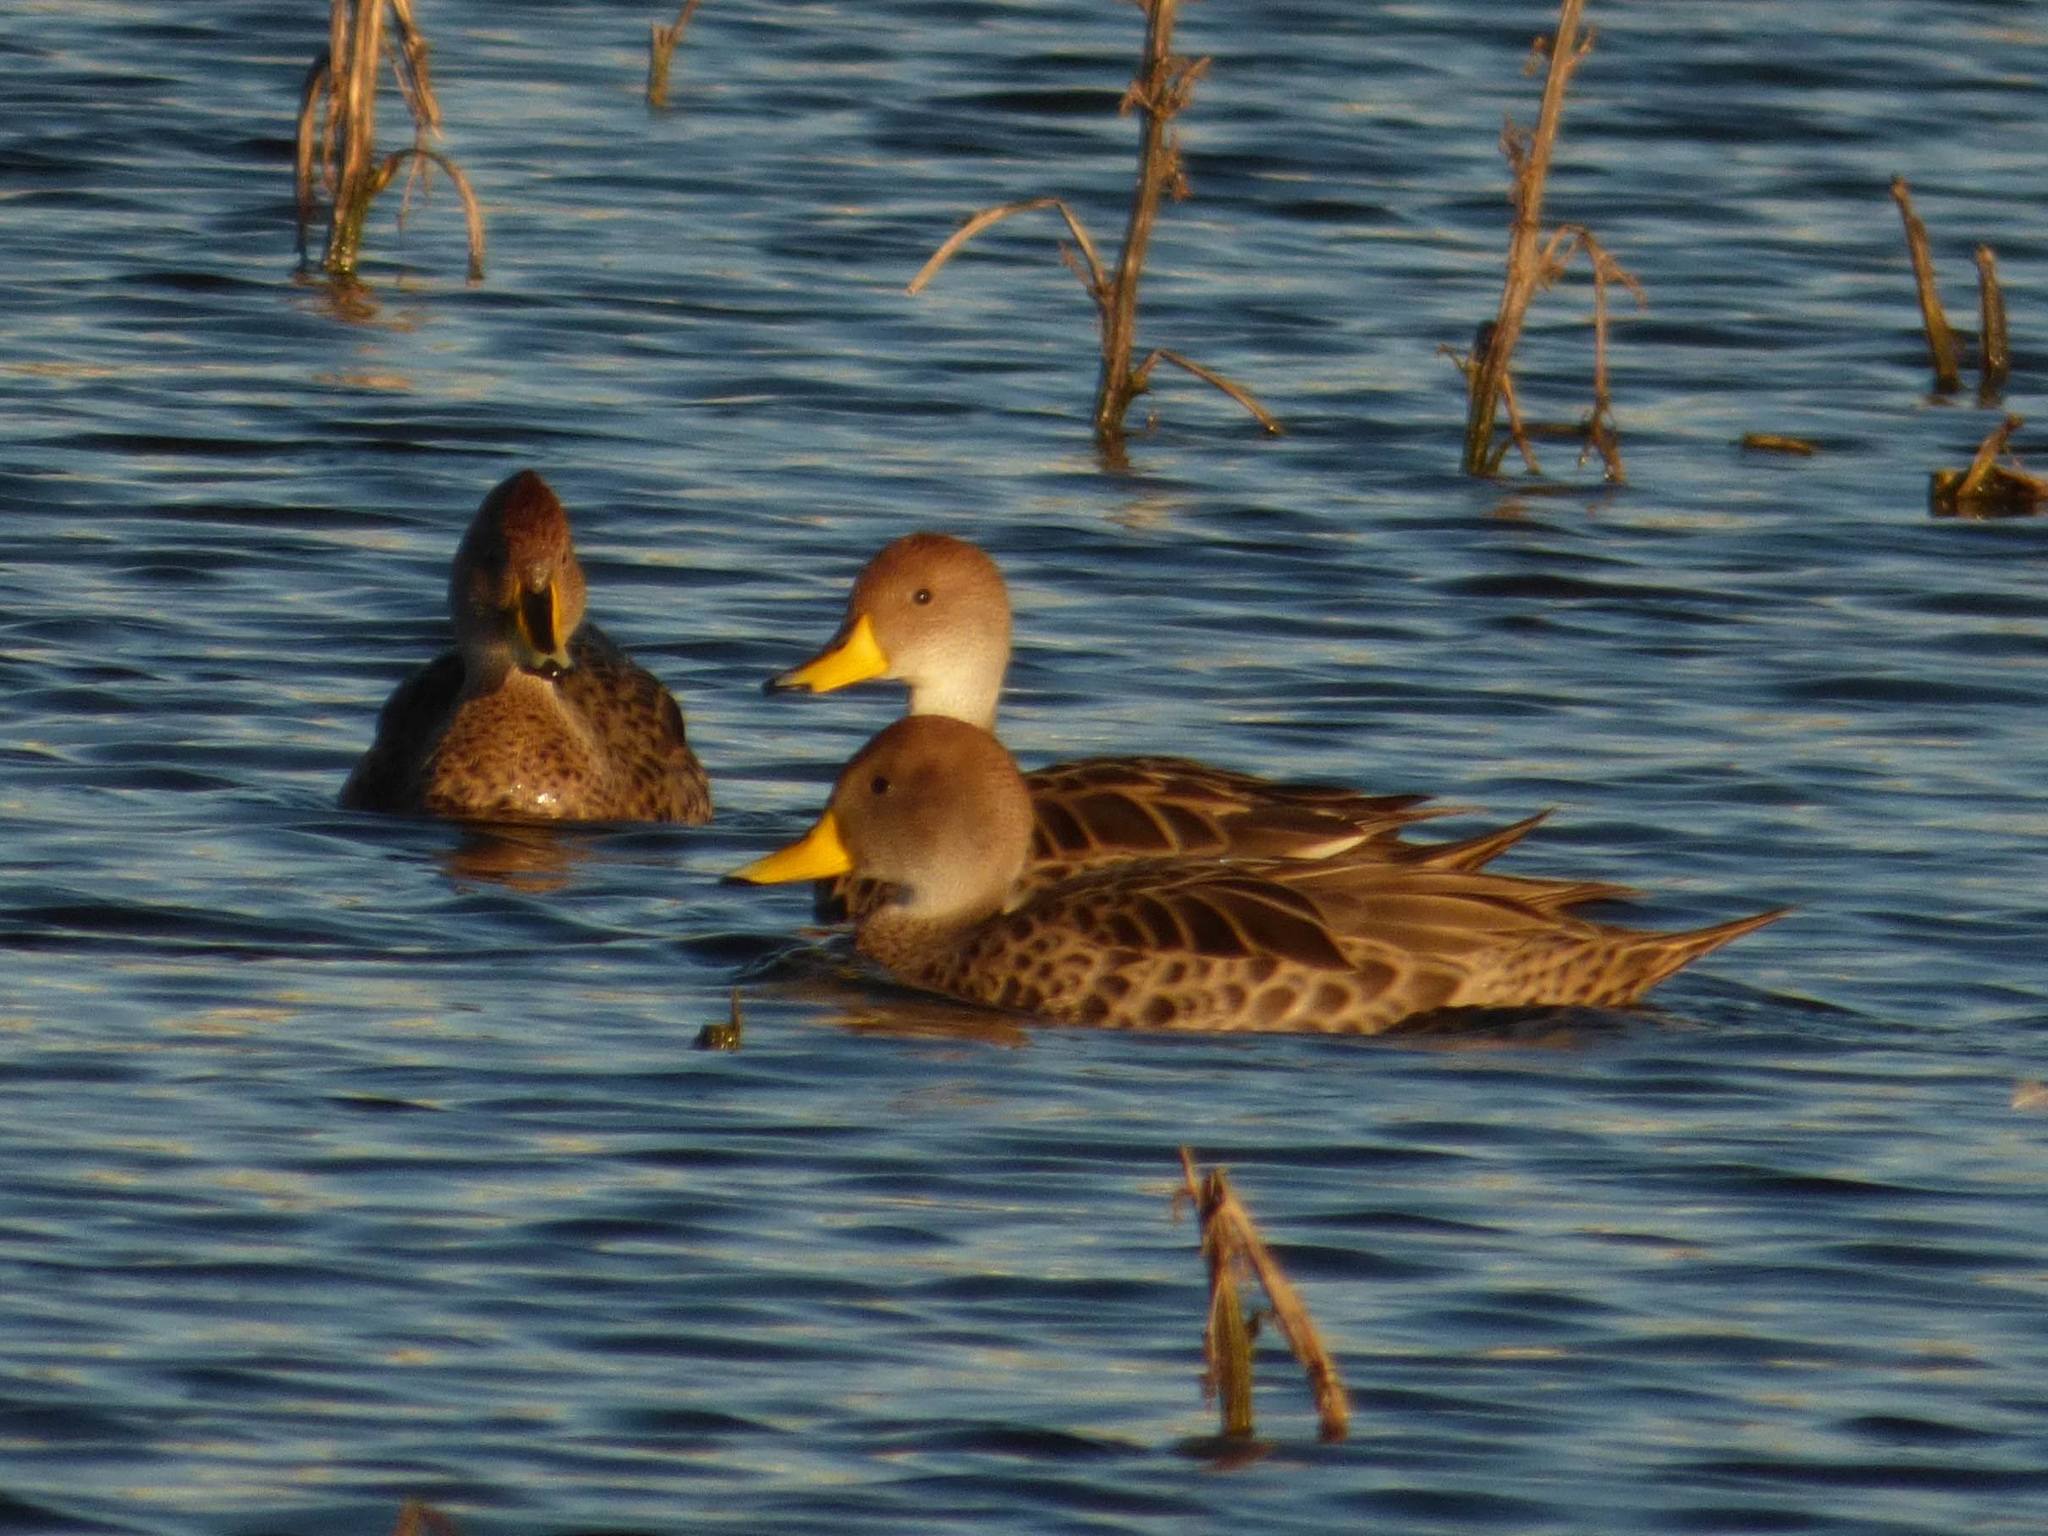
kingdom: Animalia
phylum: Chordata
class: Aves
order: Anseriformes
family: Anatidae
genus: Anas
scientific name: Anas georgica
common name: Yellow-billed pintail
